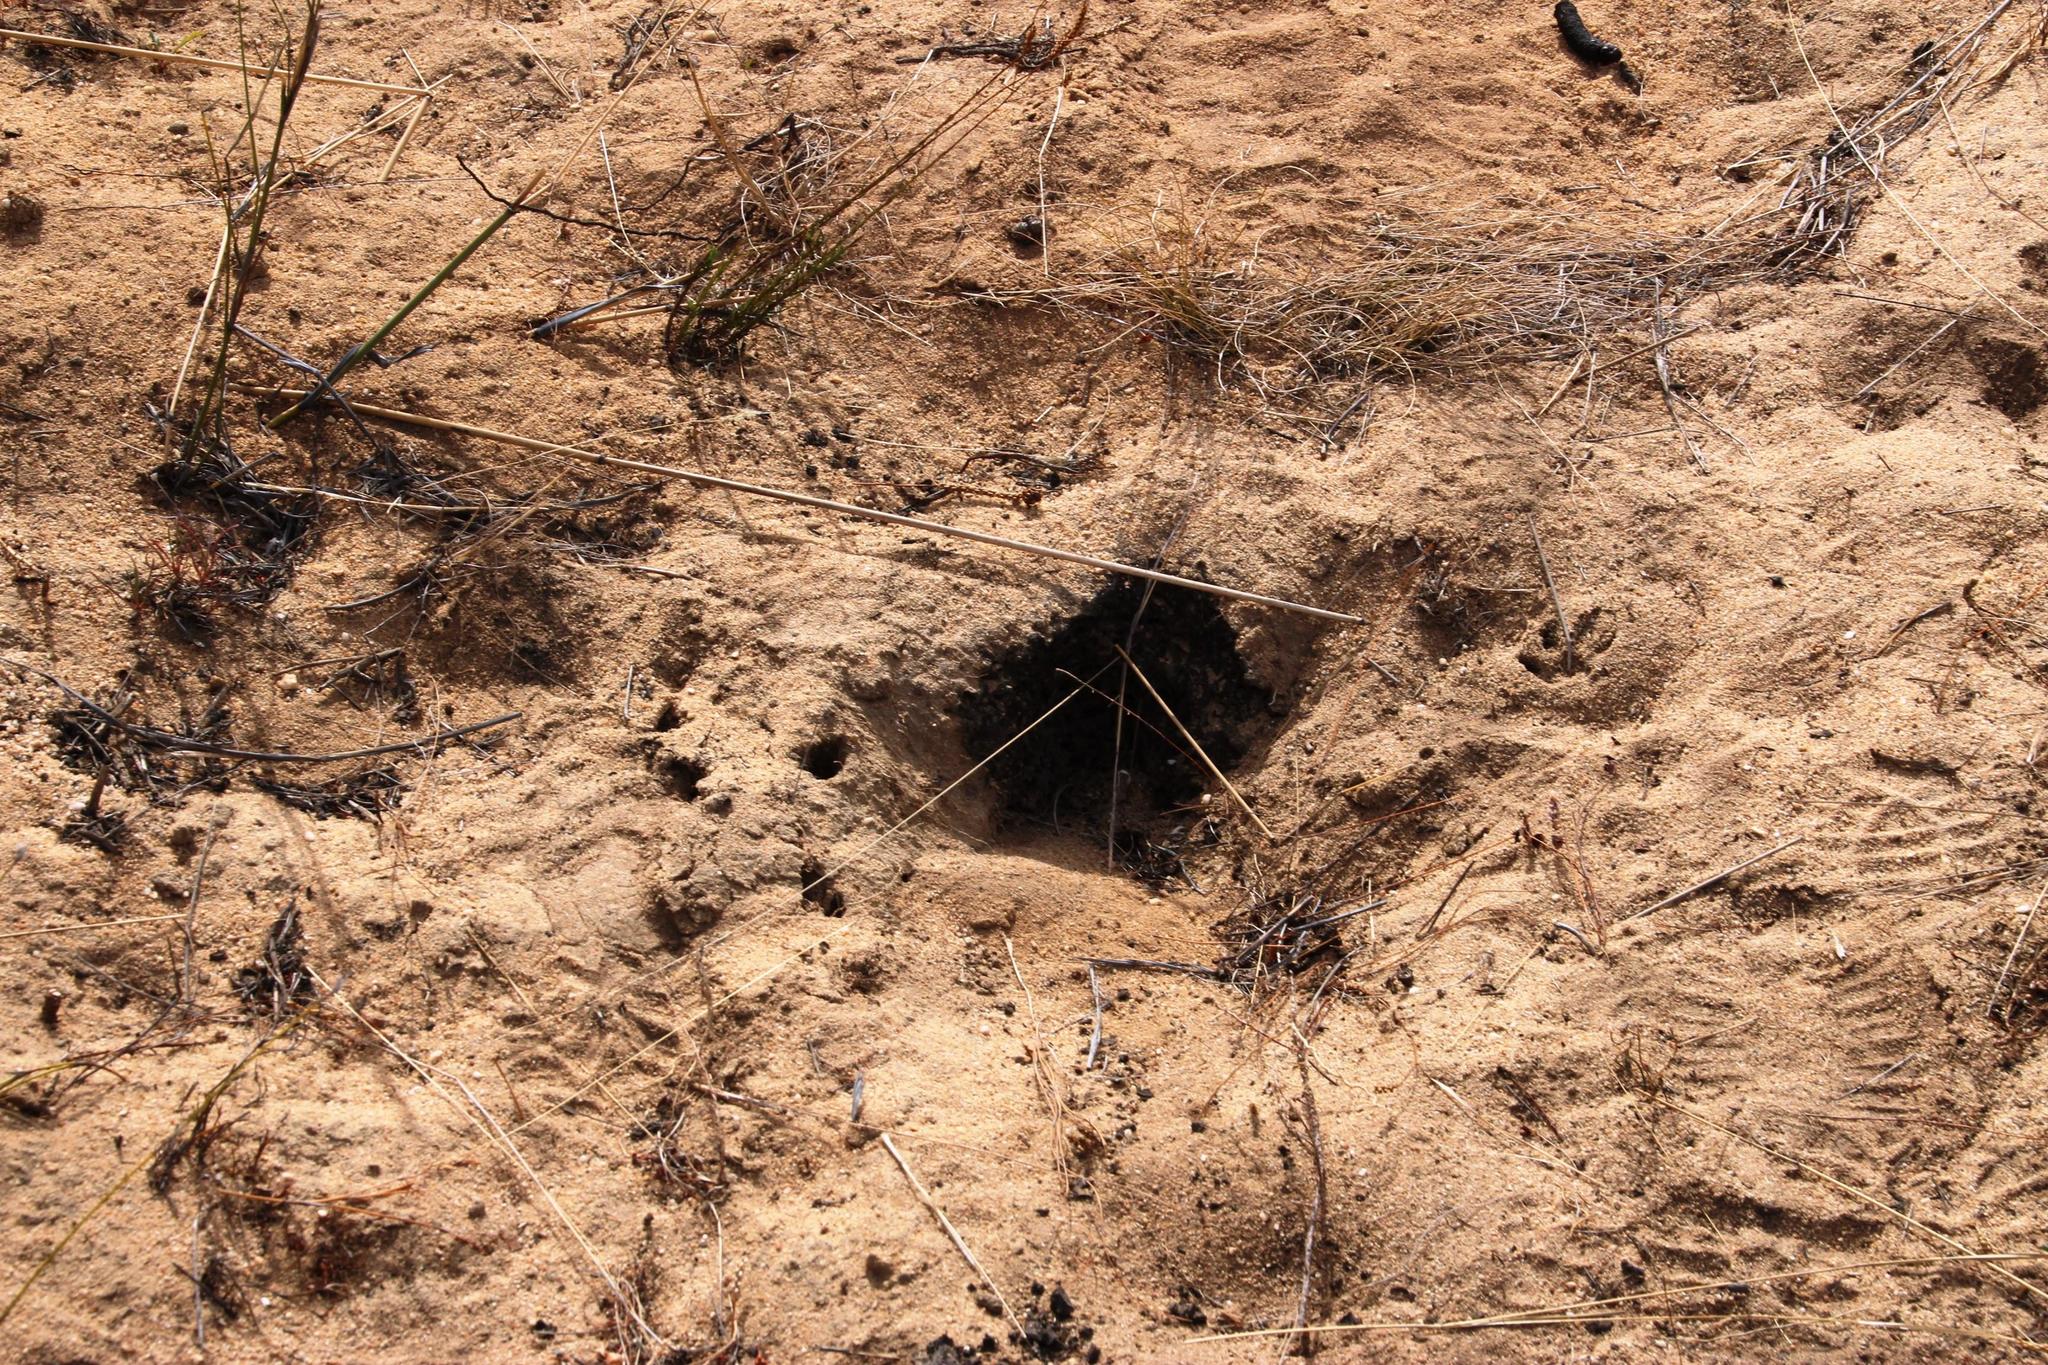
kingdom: Animalia
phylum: Chordata
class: Mammalia
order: Tubulidentata
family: Orycteropodidae
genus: Orycteropus
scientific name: Orycteropus afer
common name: Aardvark
